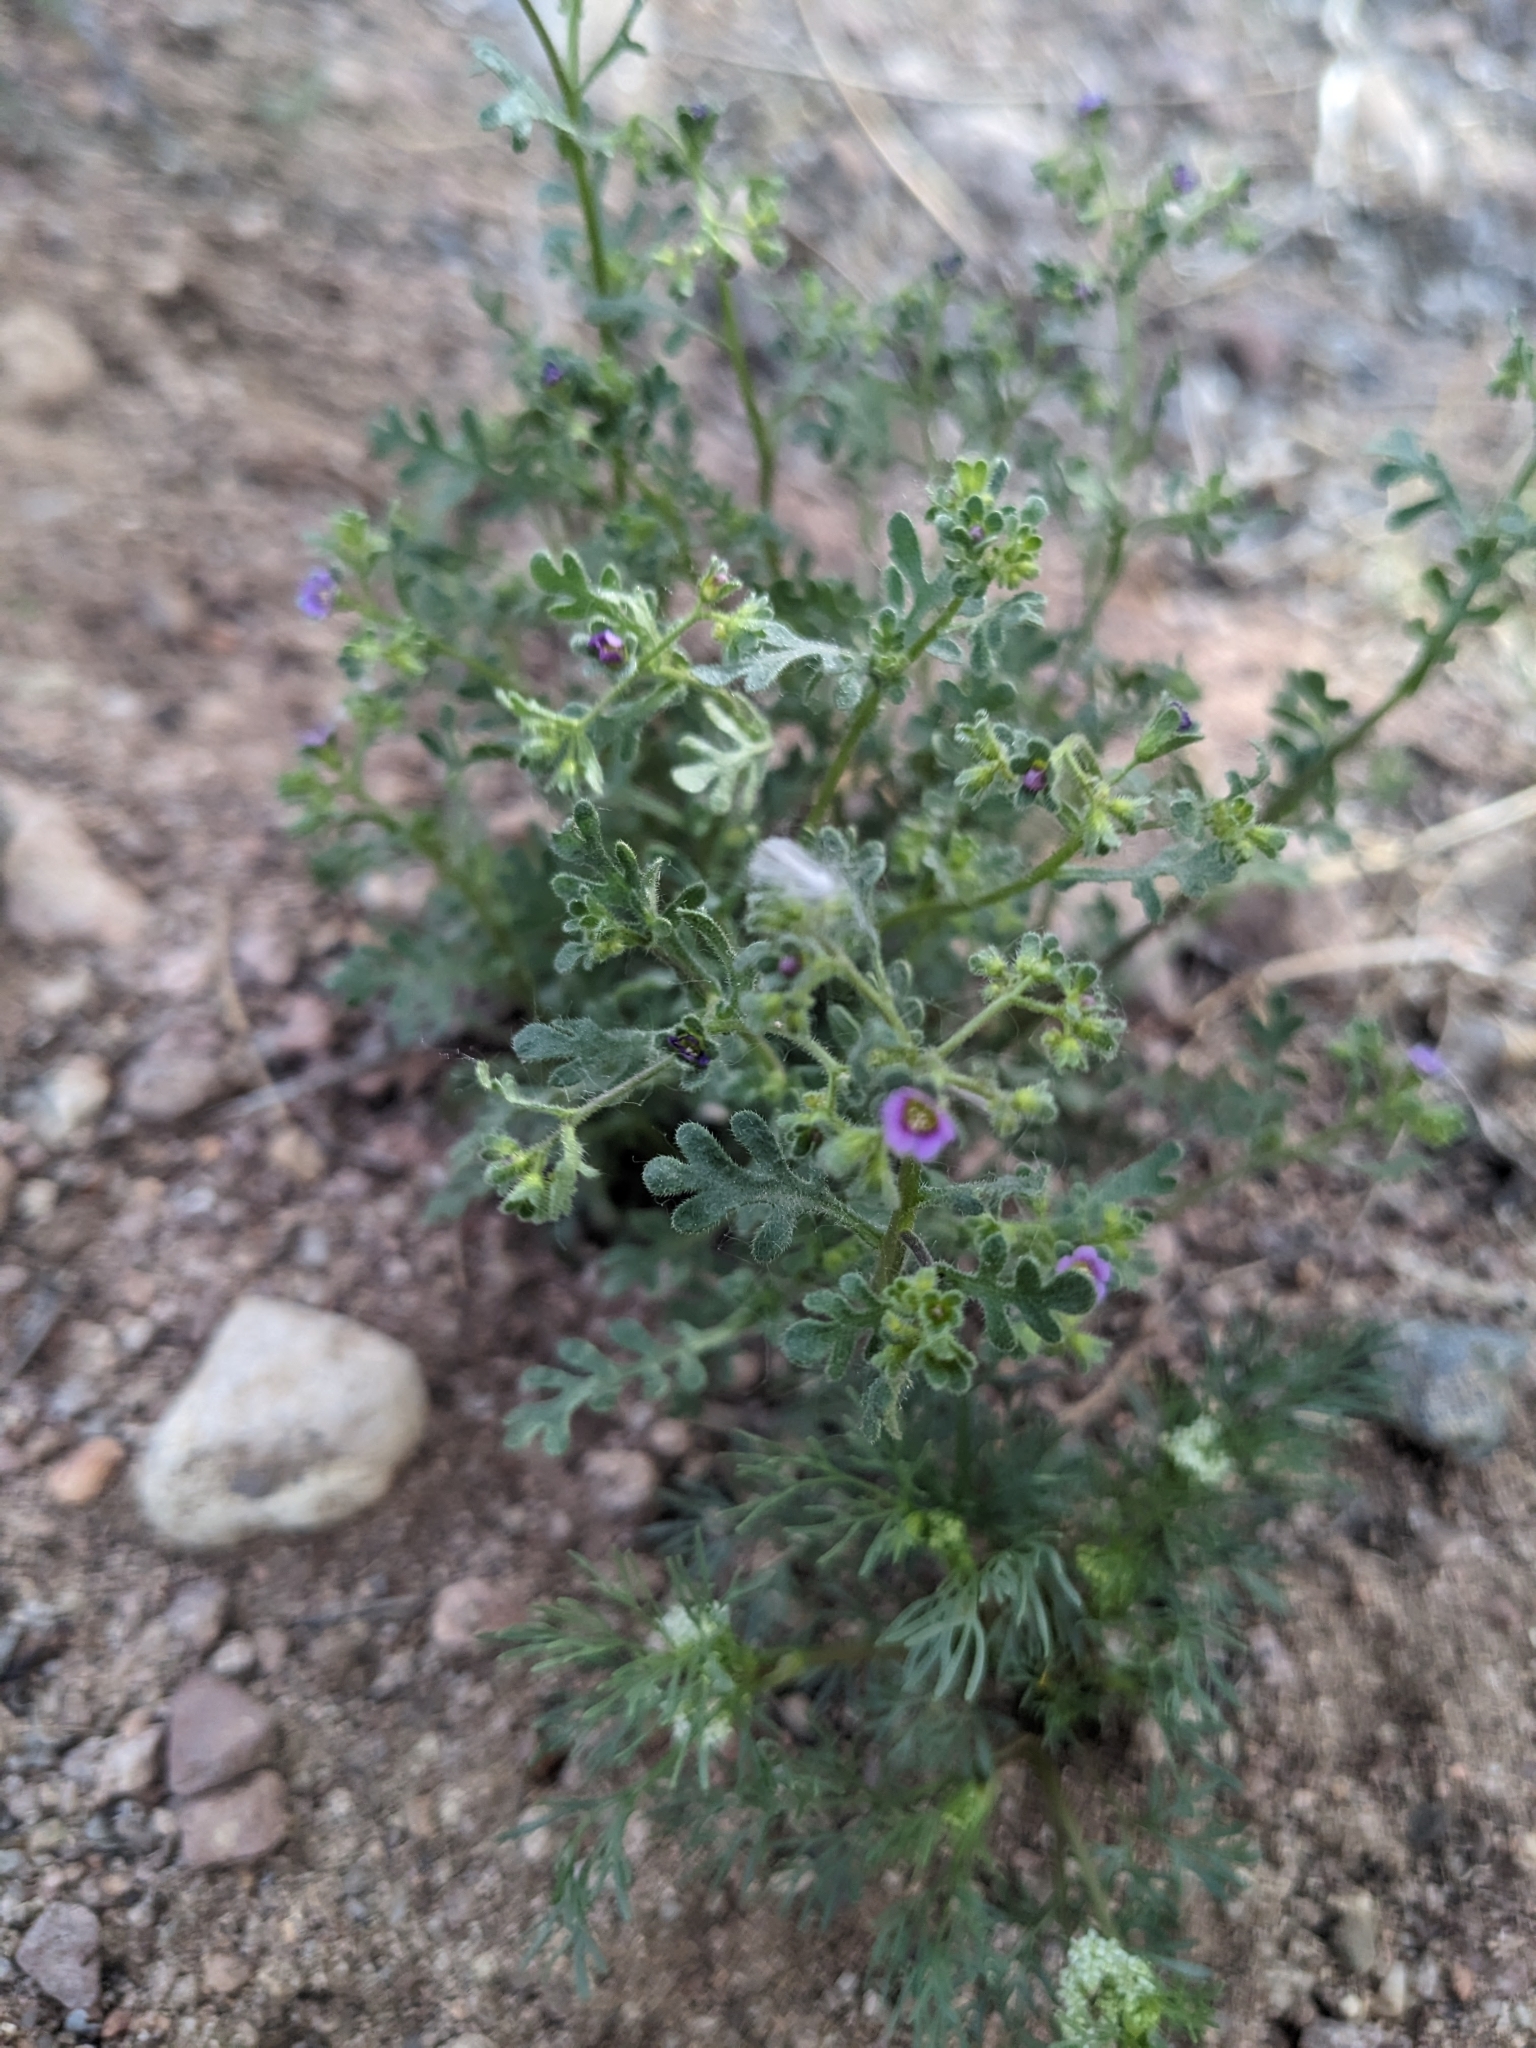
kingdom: Plantae
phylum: Tracheophyta
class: Magnoliopsida
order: Boraginales
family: Hydrophyllaceae
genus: Eucrypta
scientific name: Eucrypta micrantha
